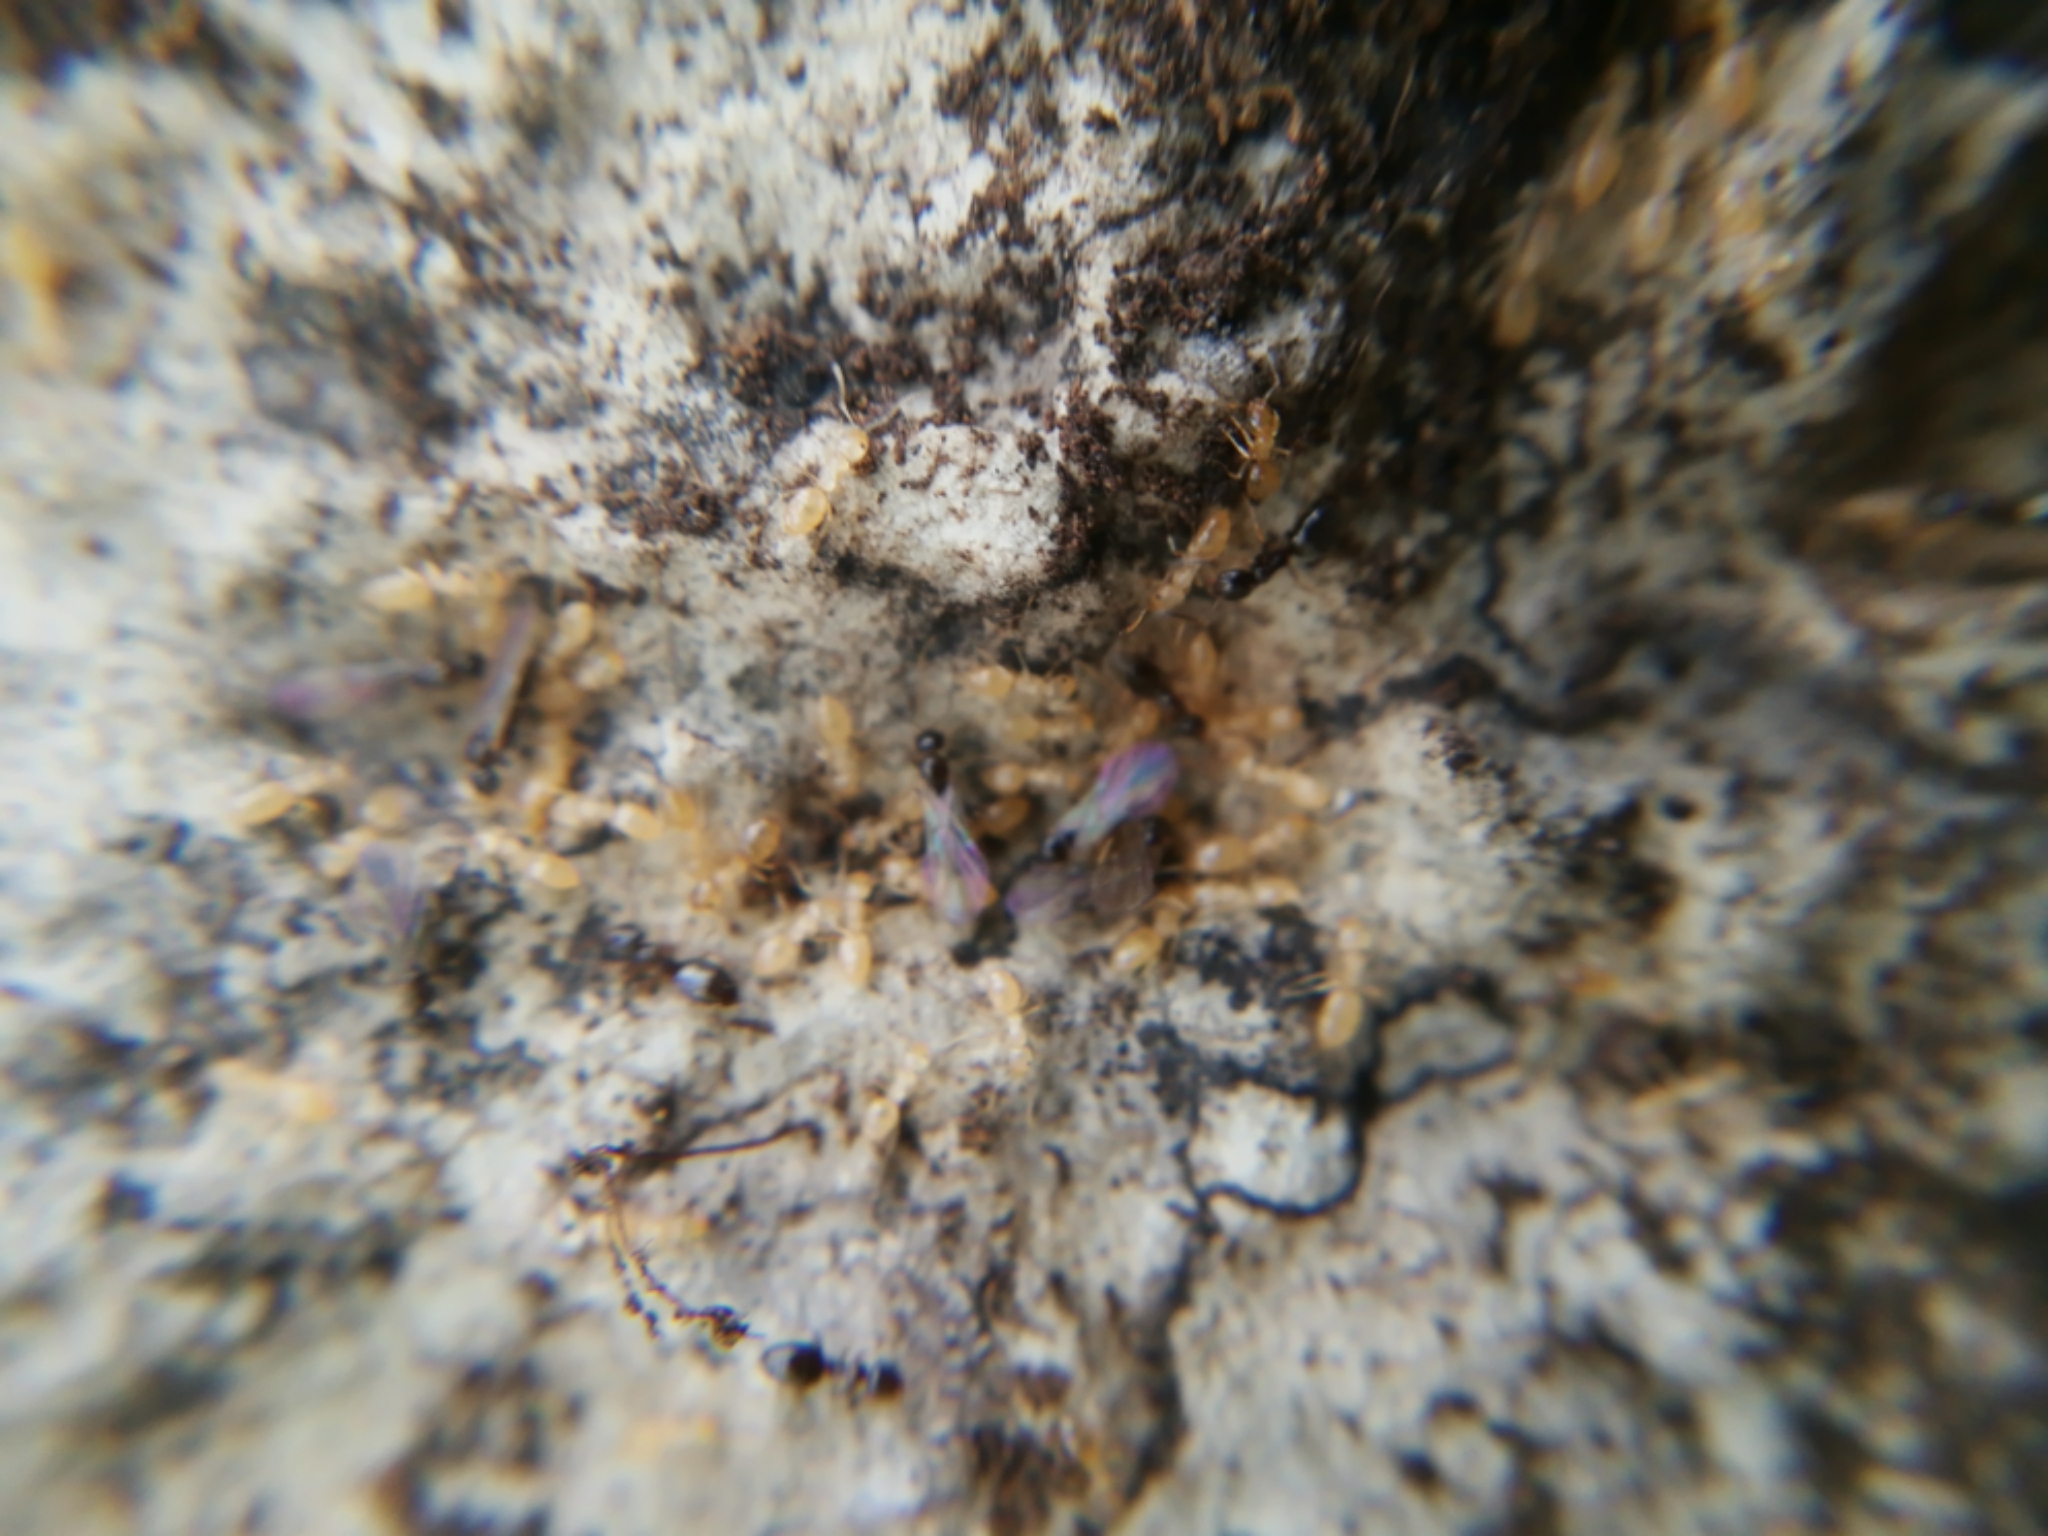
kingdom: Animalia
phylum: Arthropoda
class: Insecta
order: Hymenoptera
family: Formicidae
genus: Plagiolepis
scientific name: Plagiolepis pygmaea
